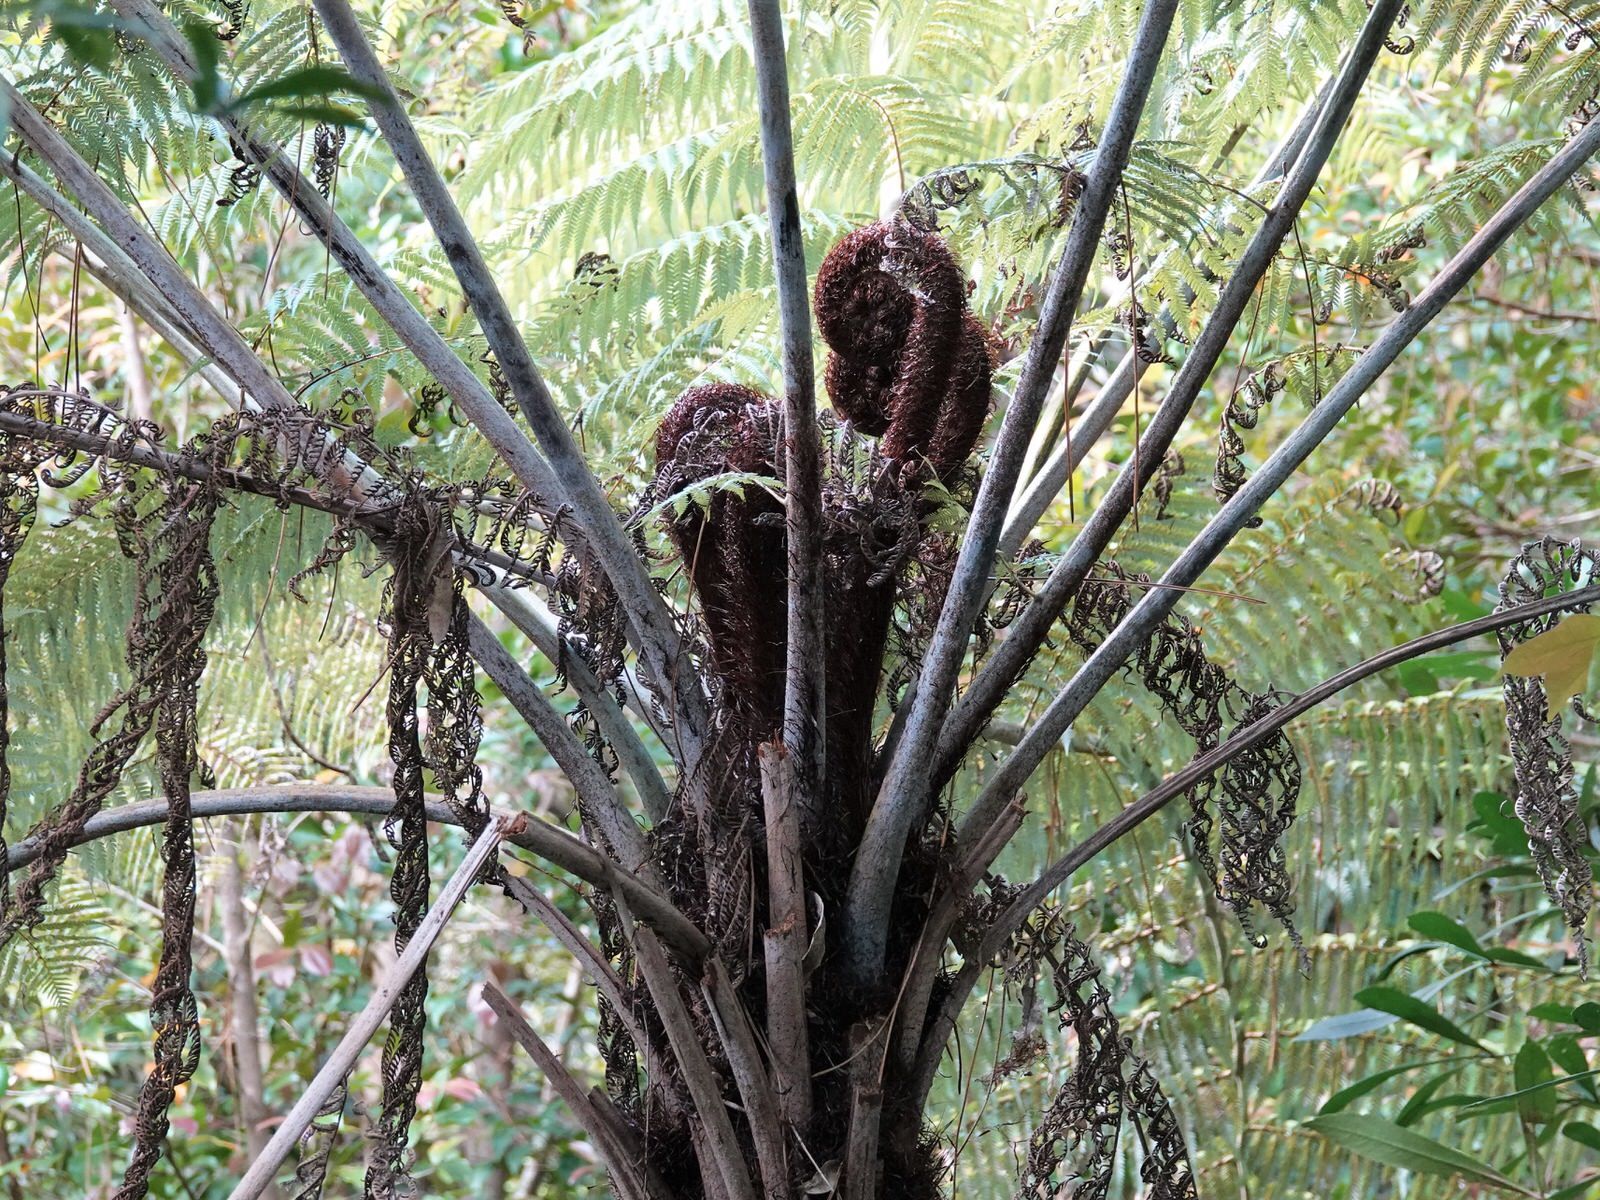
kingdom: Plantae
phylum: Tracheophyta
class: Polypodiopsida
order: Cyatheales
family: Cyatheaceae
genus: Alsophila
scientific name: Alsophila dealbata
